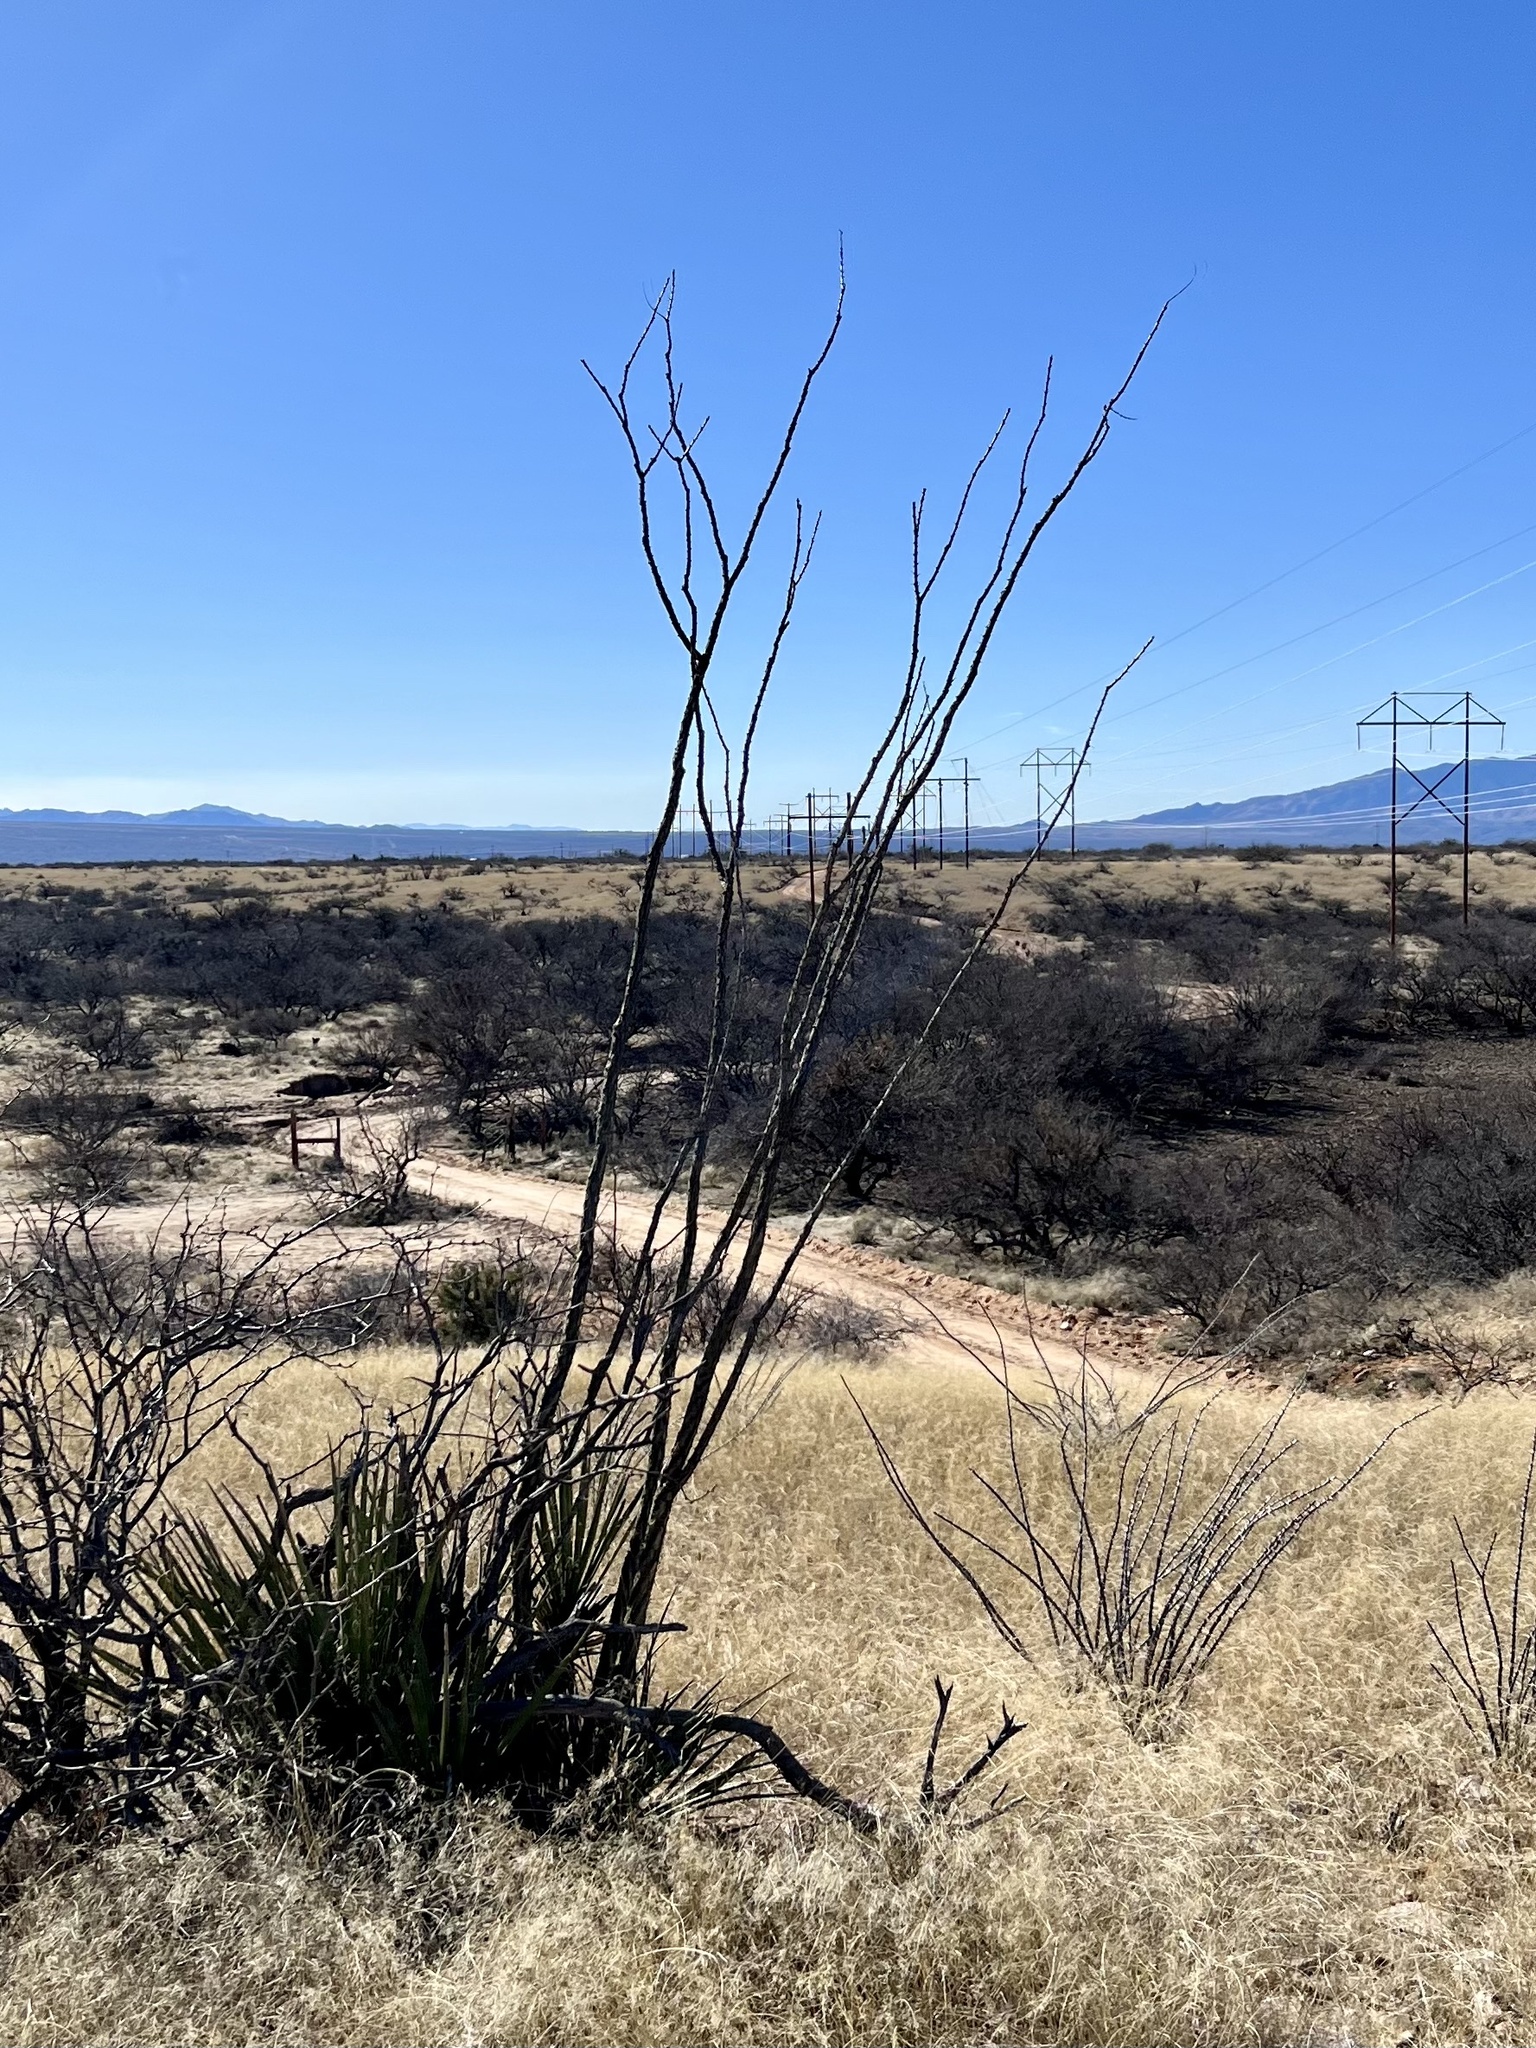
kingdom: Plantae
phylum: Tracheophyta
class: Magnoliopsida
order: Ericales
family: Fouquieriaceae
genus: Fouquieria
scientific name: Fouquieria splendens
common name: Vine-cactus
